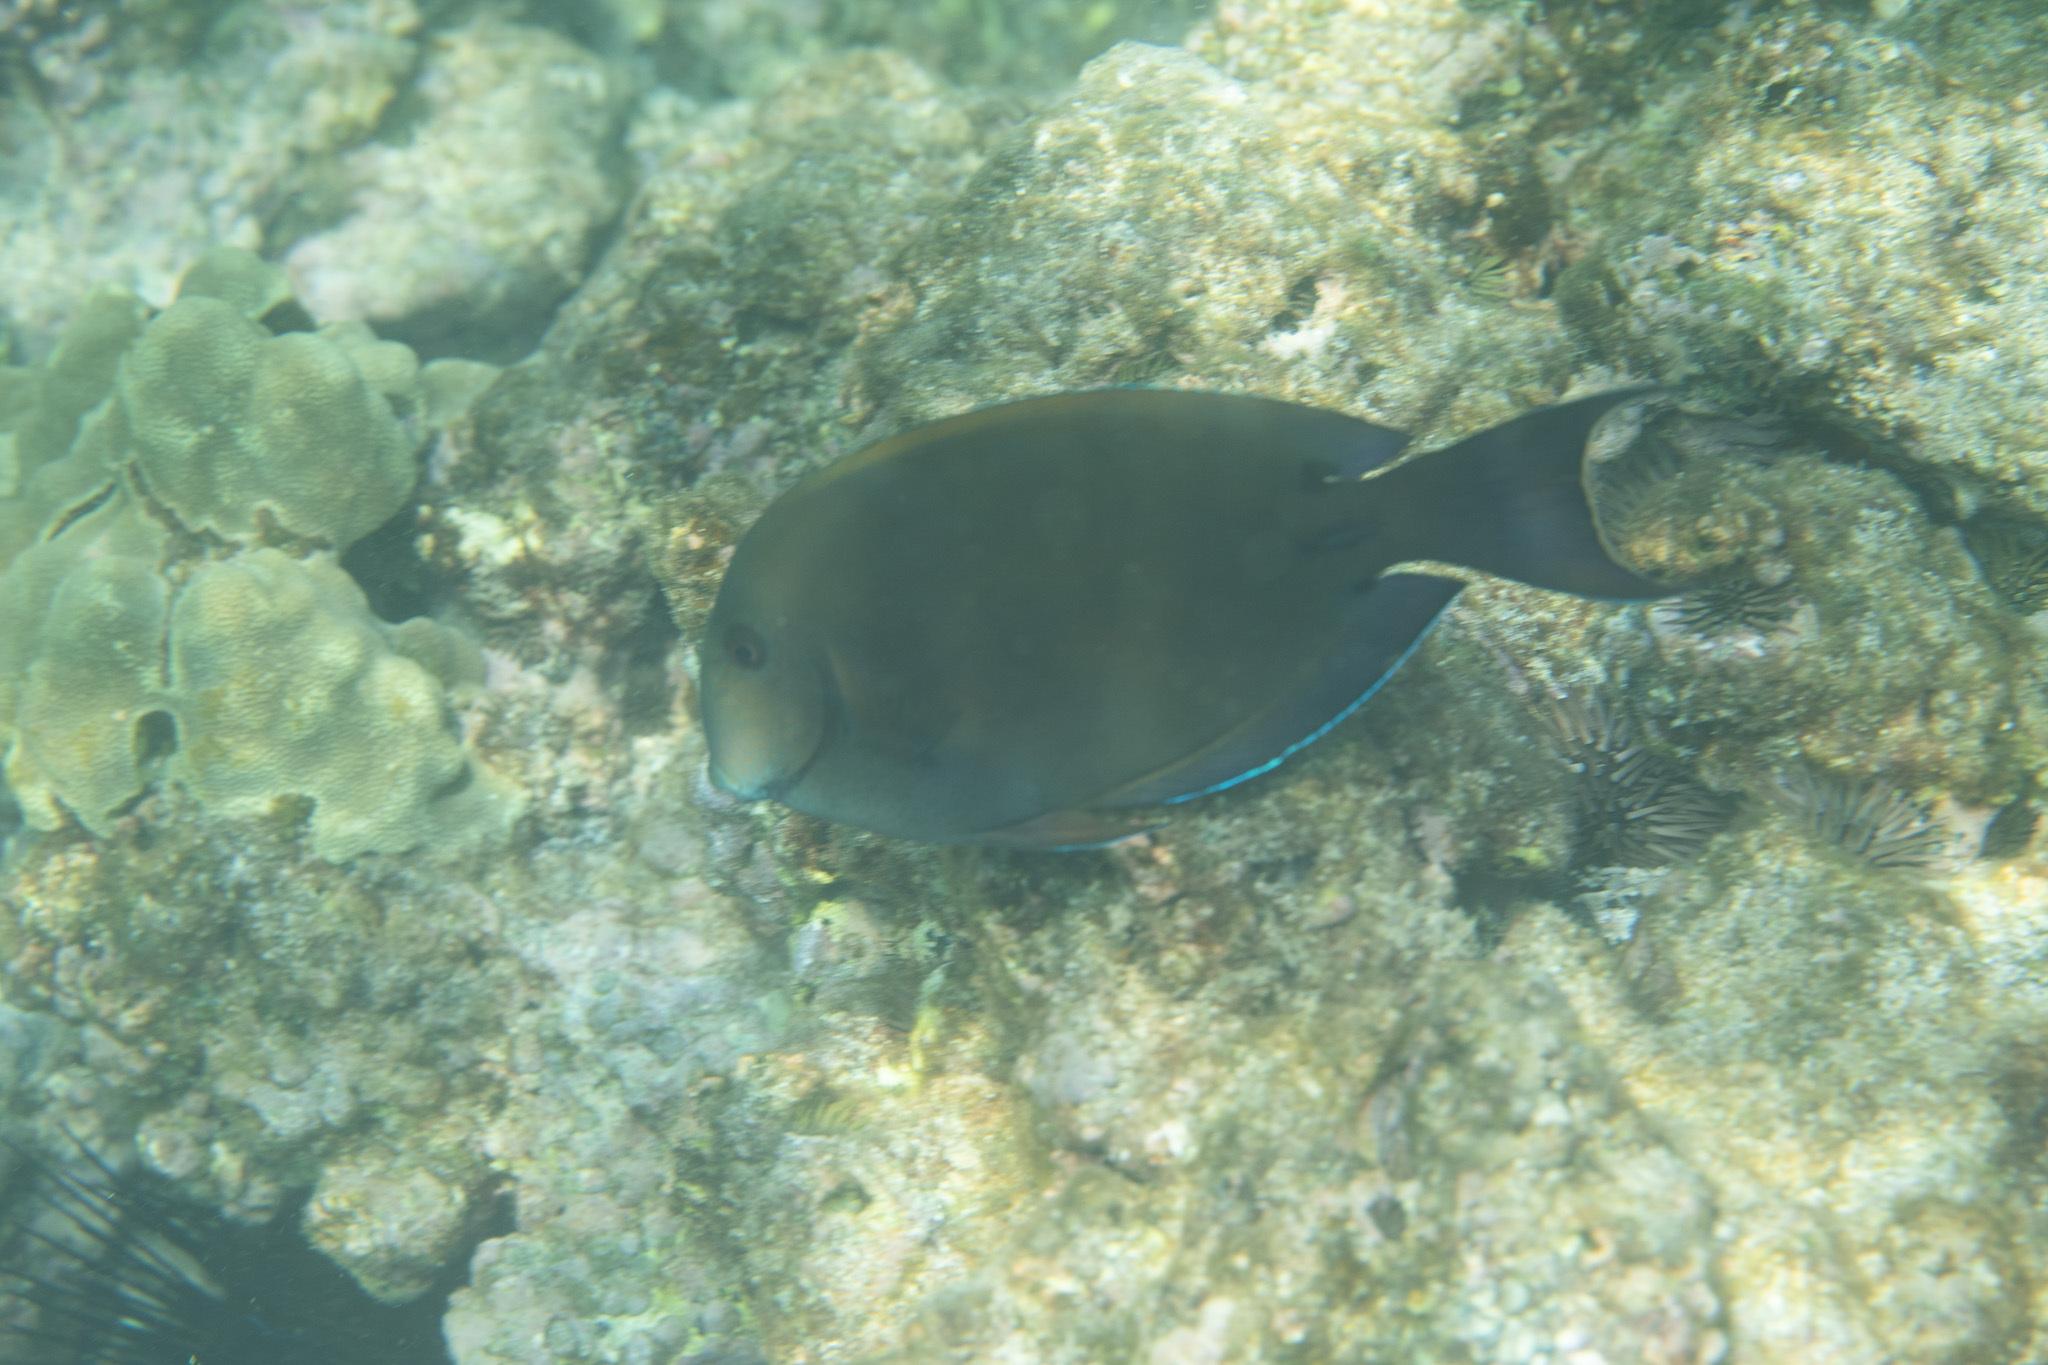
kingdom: Animalia
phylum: Chordata
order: Perciformes
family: Acanthuridae
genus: Acanthurus
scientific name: Acanthurus nigrofuscus
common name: Blackspot surgeonfish
